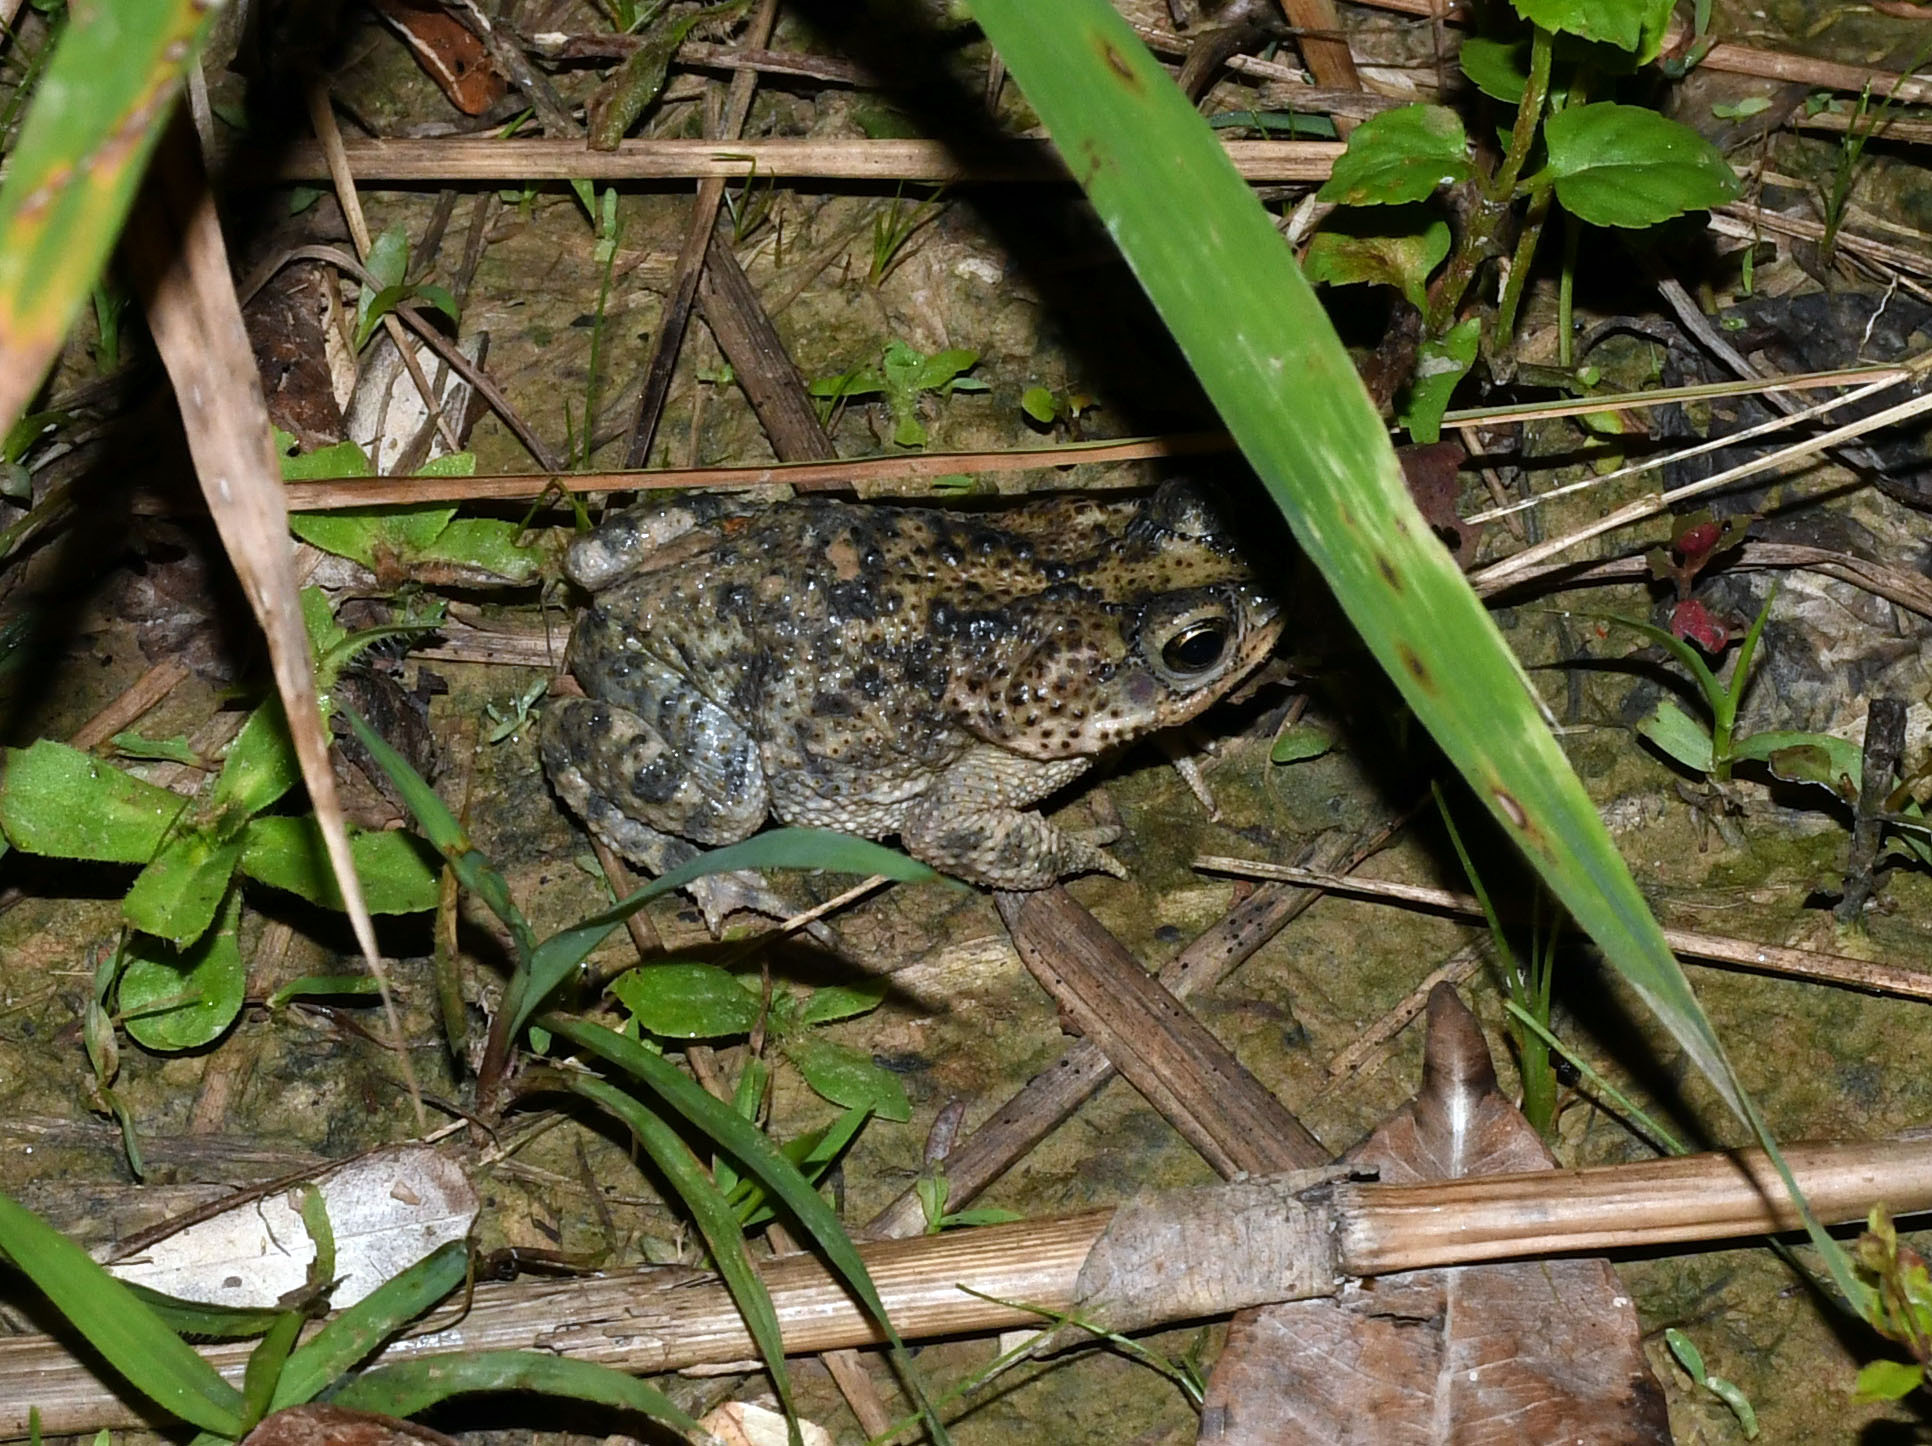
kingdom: Animalia
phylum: Chordata
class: Amphibia
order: Anura
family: Bufonidae
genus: Rhinella
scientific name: Rhinella major
